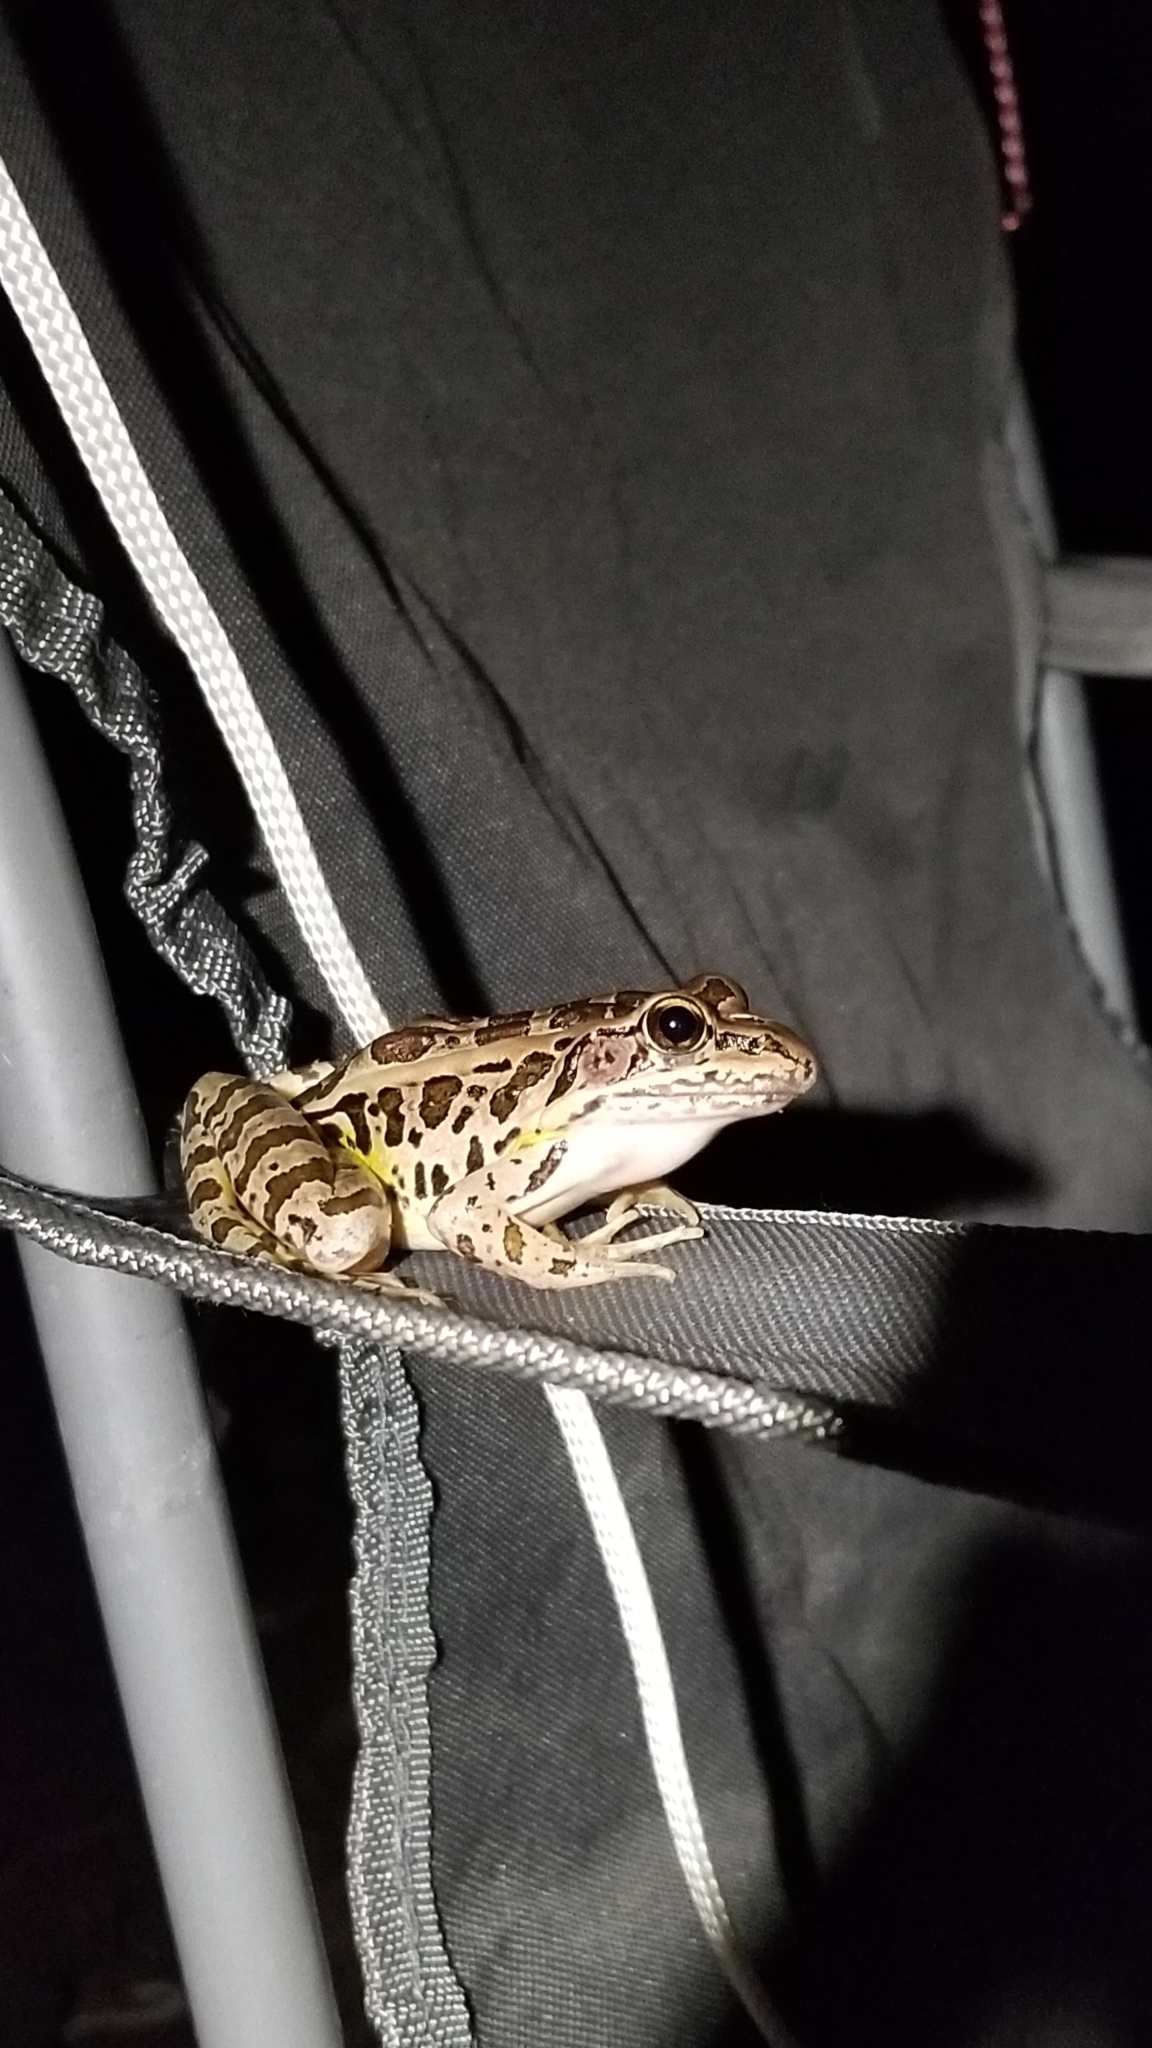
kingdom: Animalia
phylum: Chordata
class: Amphibia
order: Anura
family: Ranidae
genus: Lithobates
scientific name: Lithobates palustris
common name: Pickerel frog
